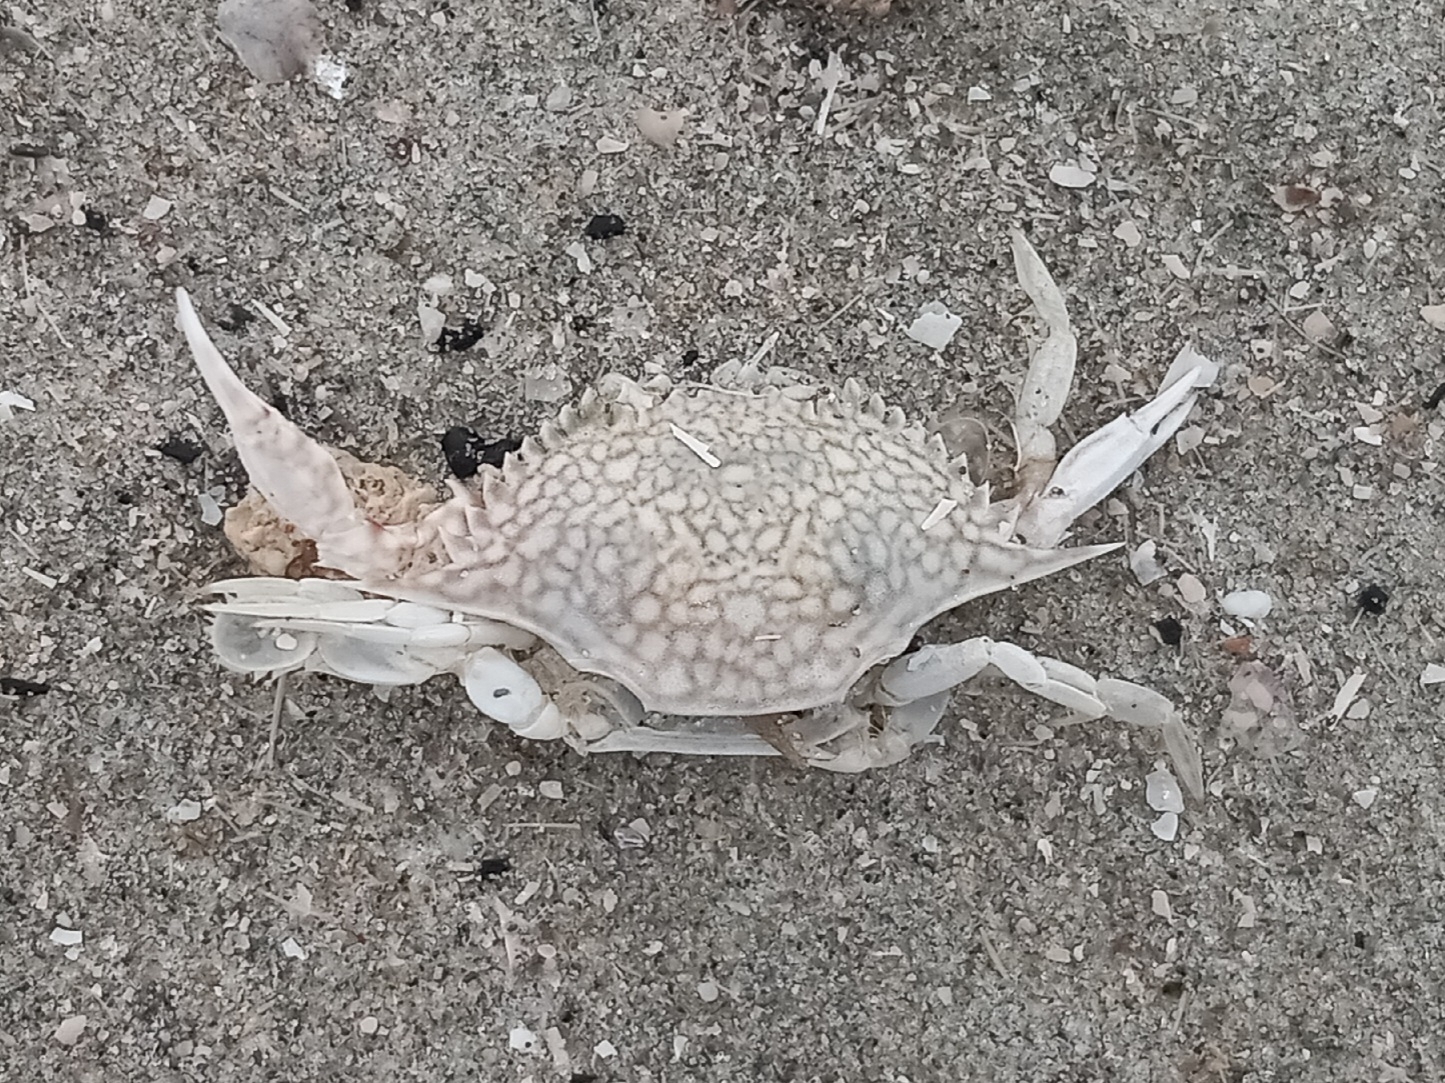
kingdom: Animalia
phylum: Arthropoda
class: Malacostraca
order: Decapoda
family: Portunidae
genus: Arenaeus
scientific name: Arenaeus cribrarius
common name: Speckled crab
